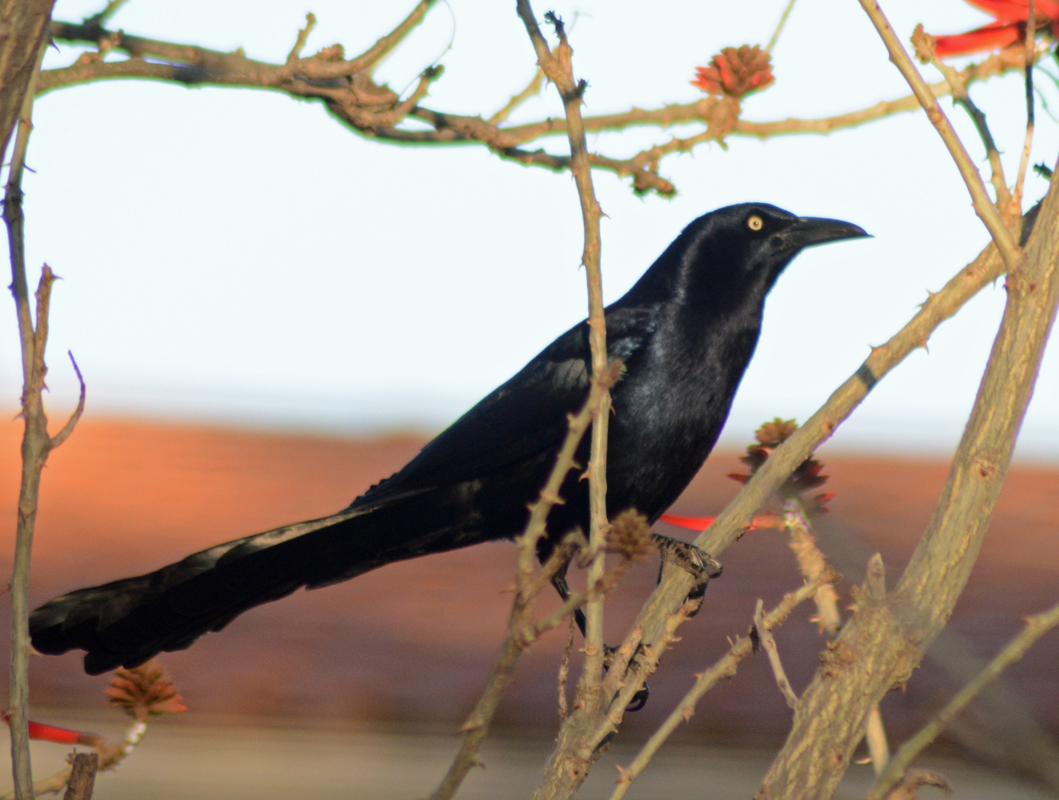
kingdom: Animalia
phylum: Chordata
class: Aves
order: Passeriformes
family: Icteridae
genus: Quiscalus
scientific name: Quiscalus mexicanus
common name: Great-tailed grackle
